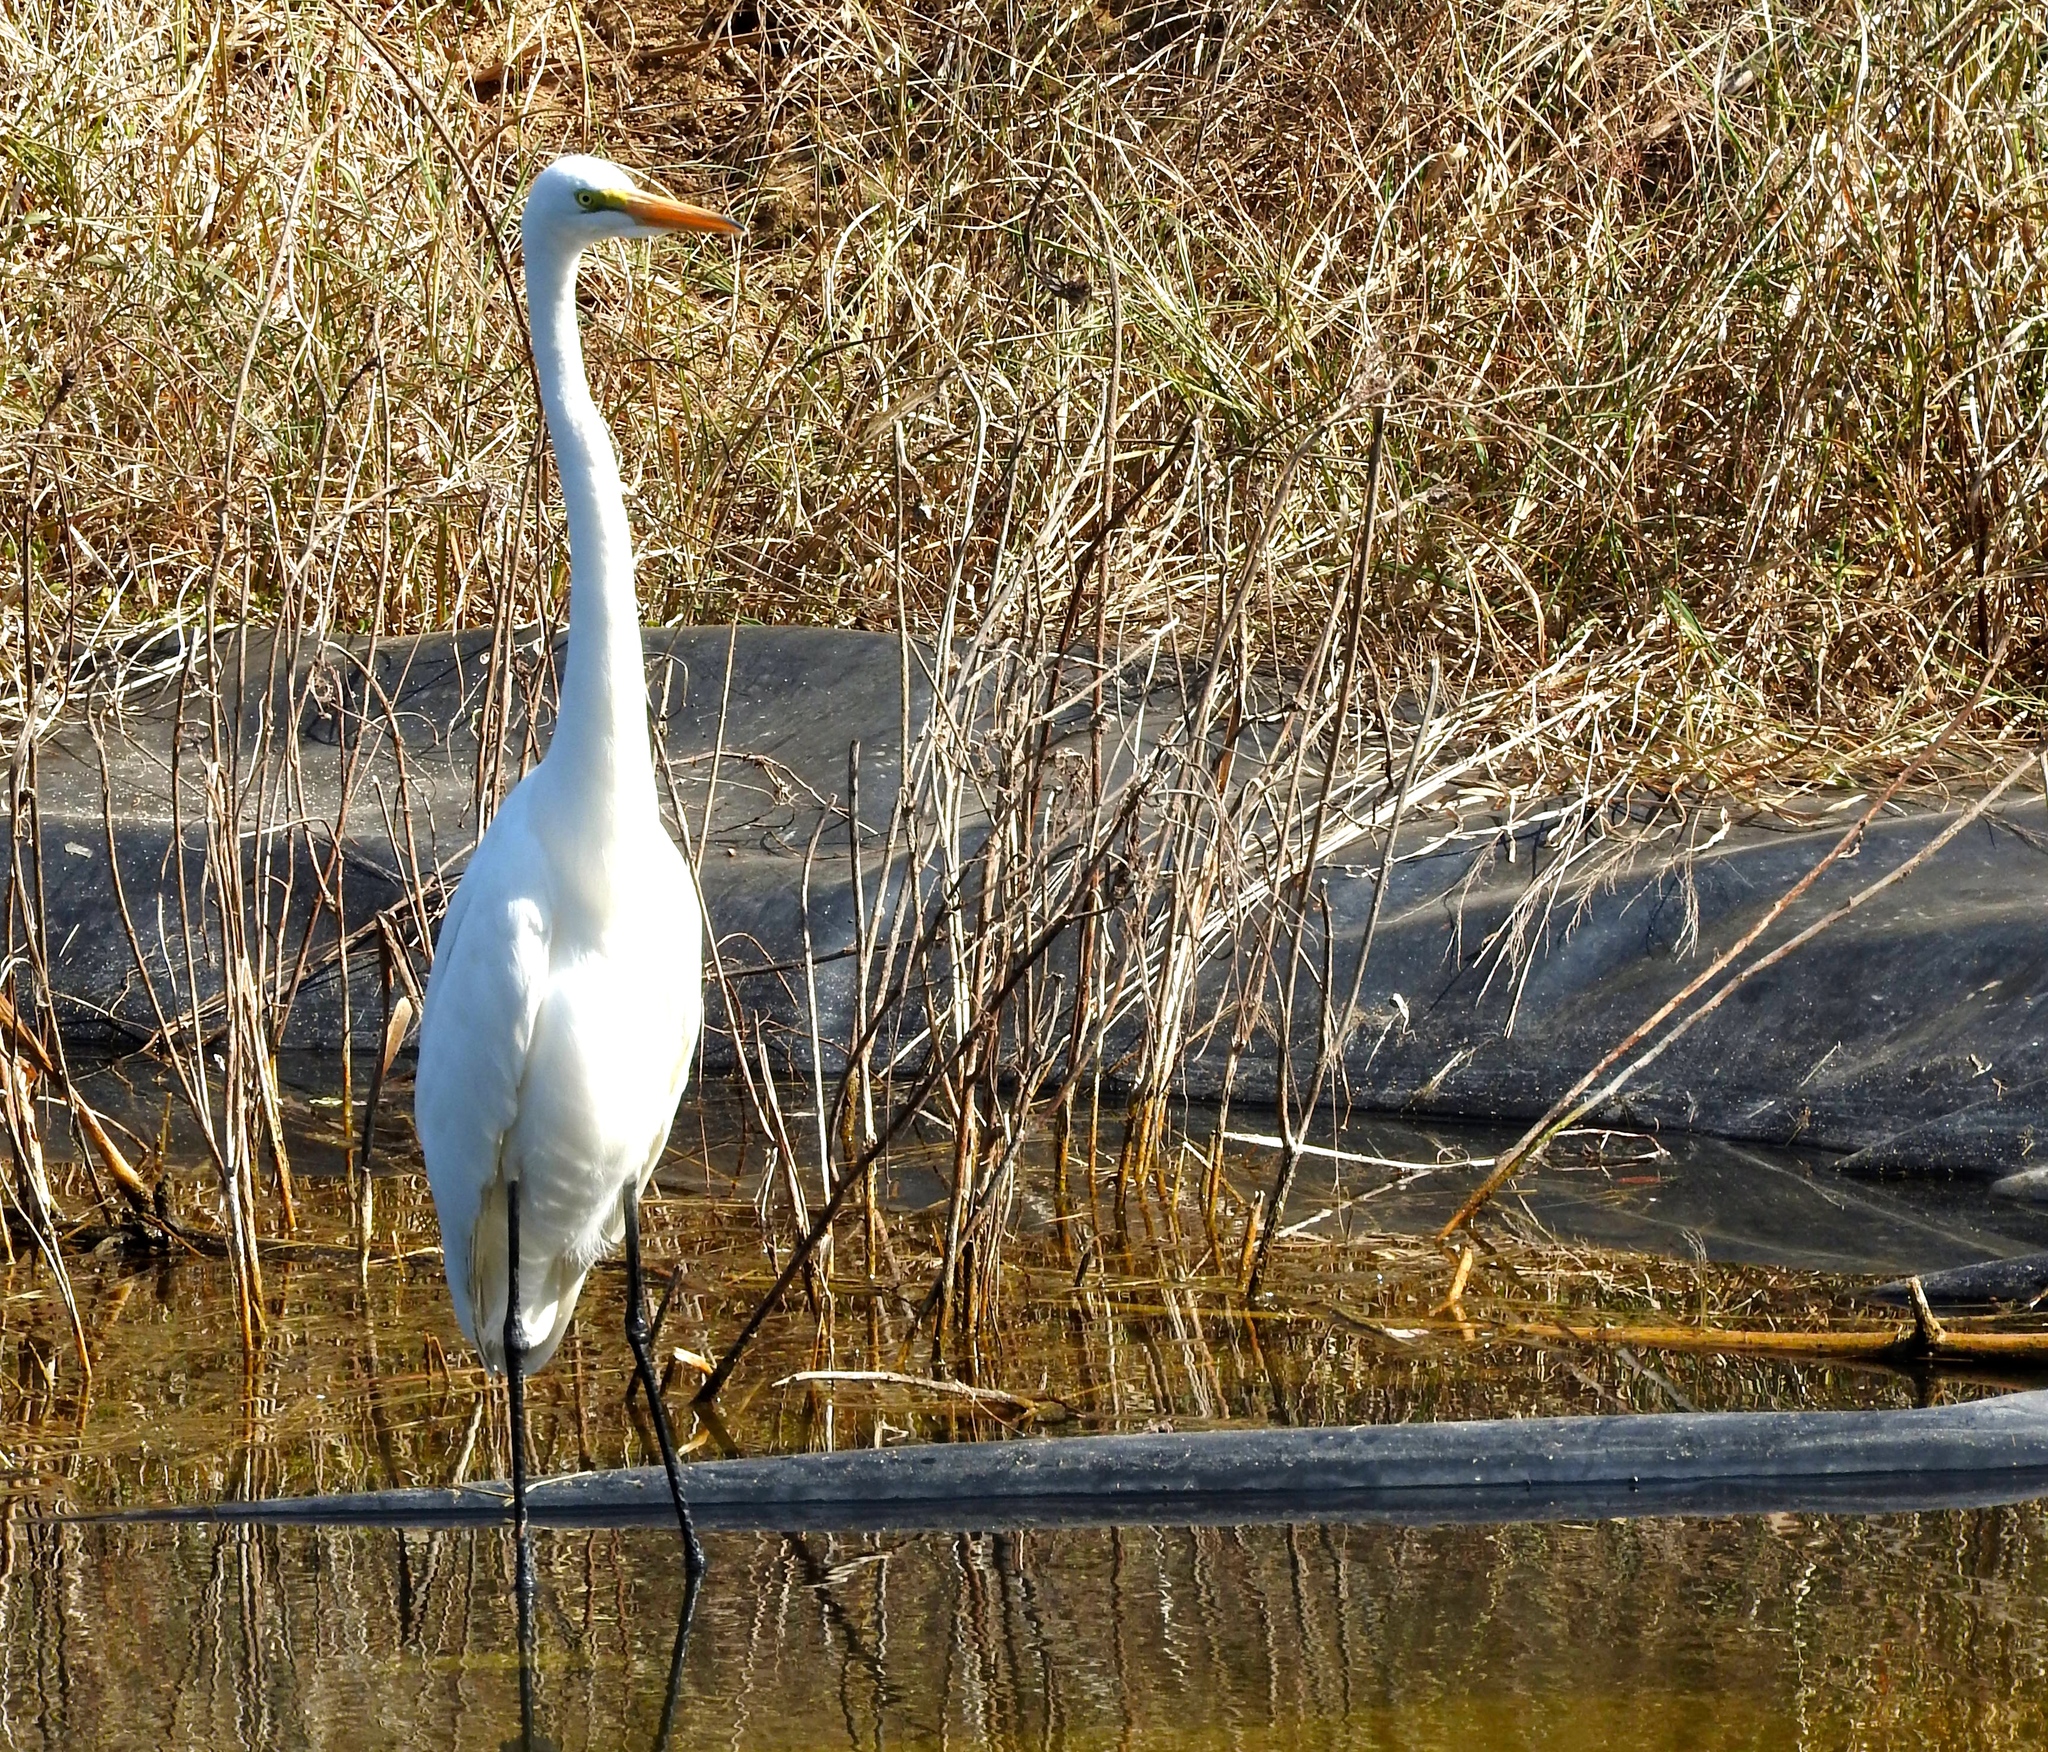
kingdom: Animalia
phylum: Chordata
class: Aves
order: Pelecaniformes
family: Ardeidae
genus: Ardea
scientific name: Ardea alba
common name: Great egret
